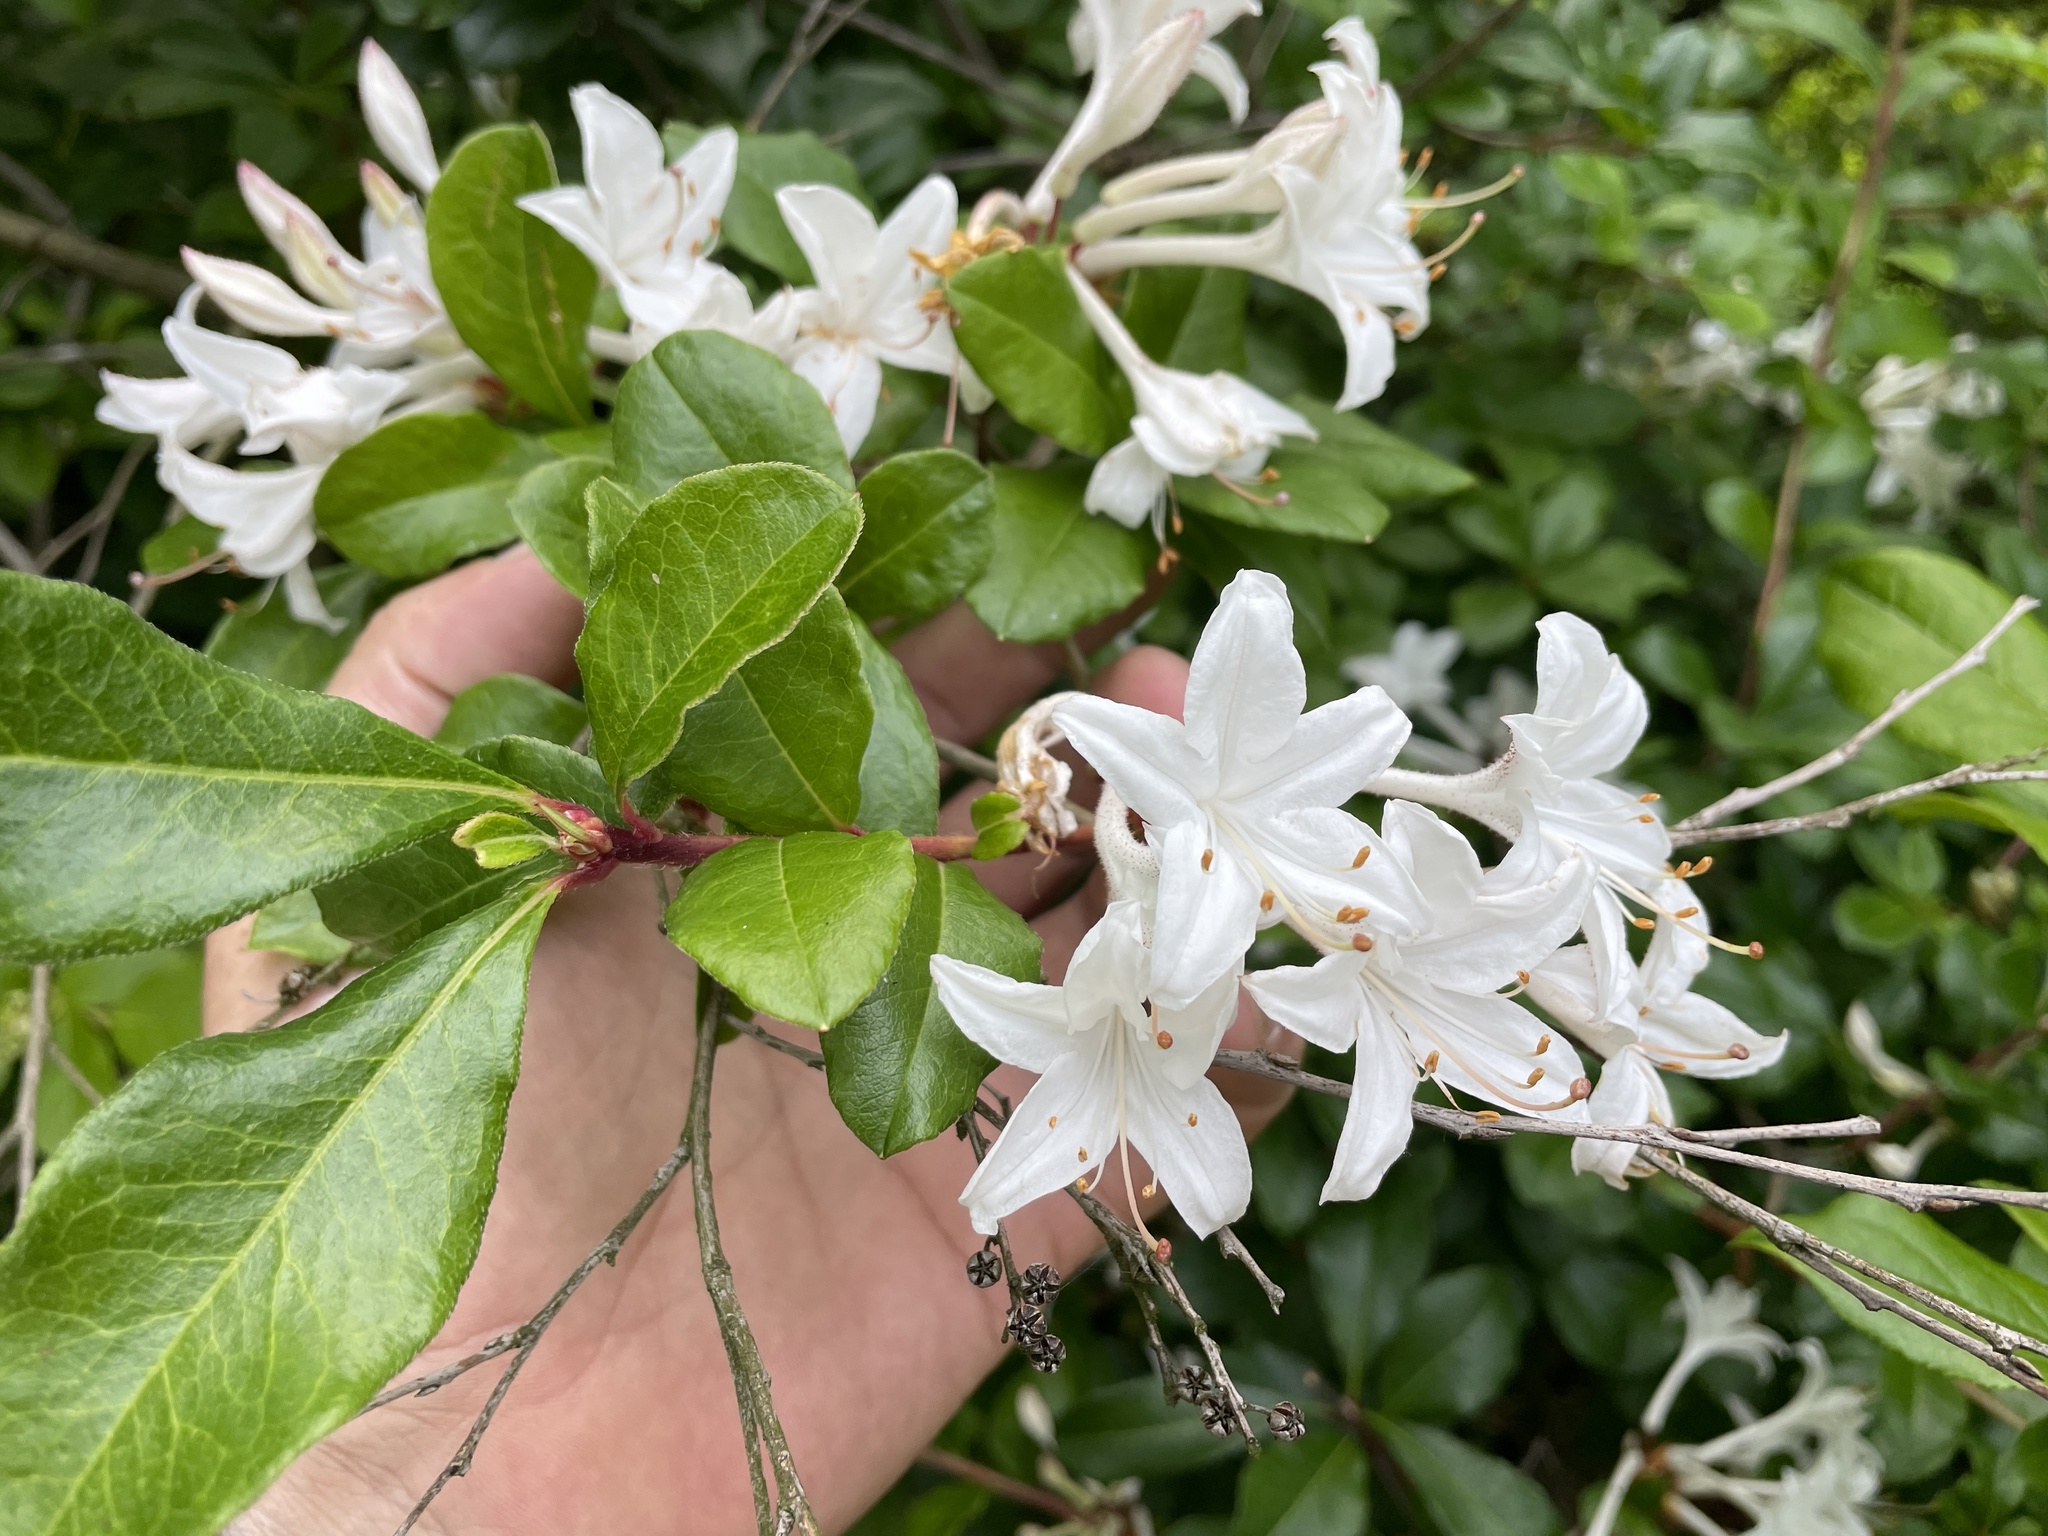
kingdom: Plantae
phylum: Tracheophyta
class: Magnoliopsida
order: Ericales
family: Ericaceae
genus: Rhododendron
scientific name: Rhododendron viscosum
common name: Clammy azalea
